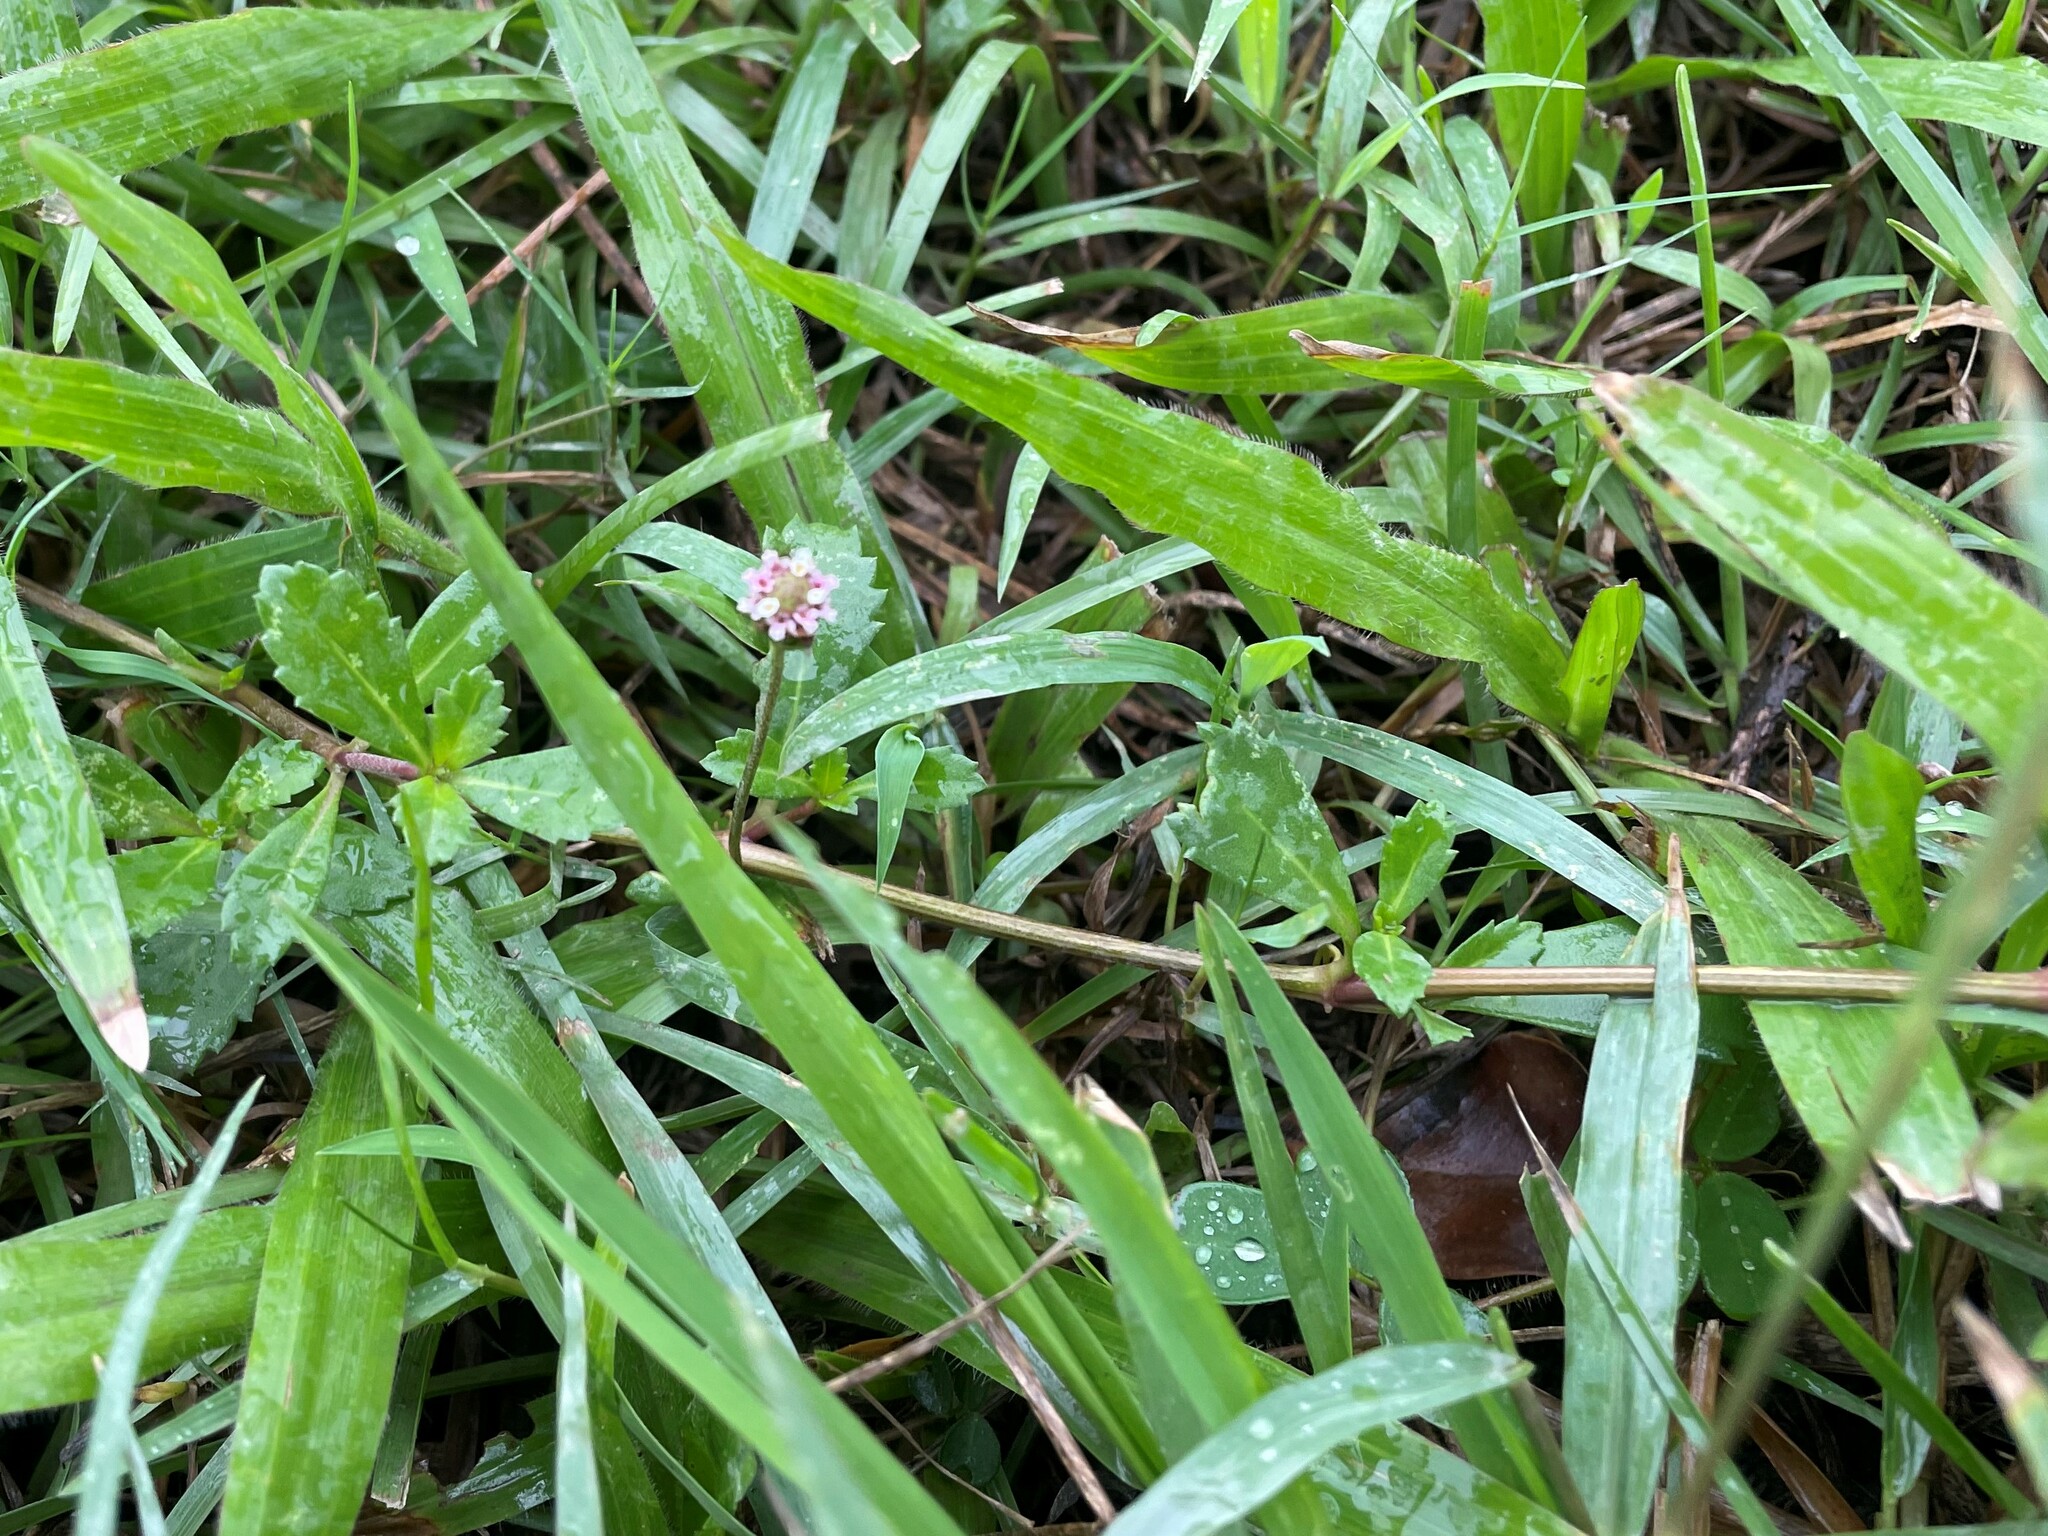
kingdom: Plantae
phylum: Tracheophyta
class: Magnoliopsida
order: Lamiales
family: Verbenaceae
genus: Phyla
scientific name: Phyla nodiflora
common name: Frogfruit
